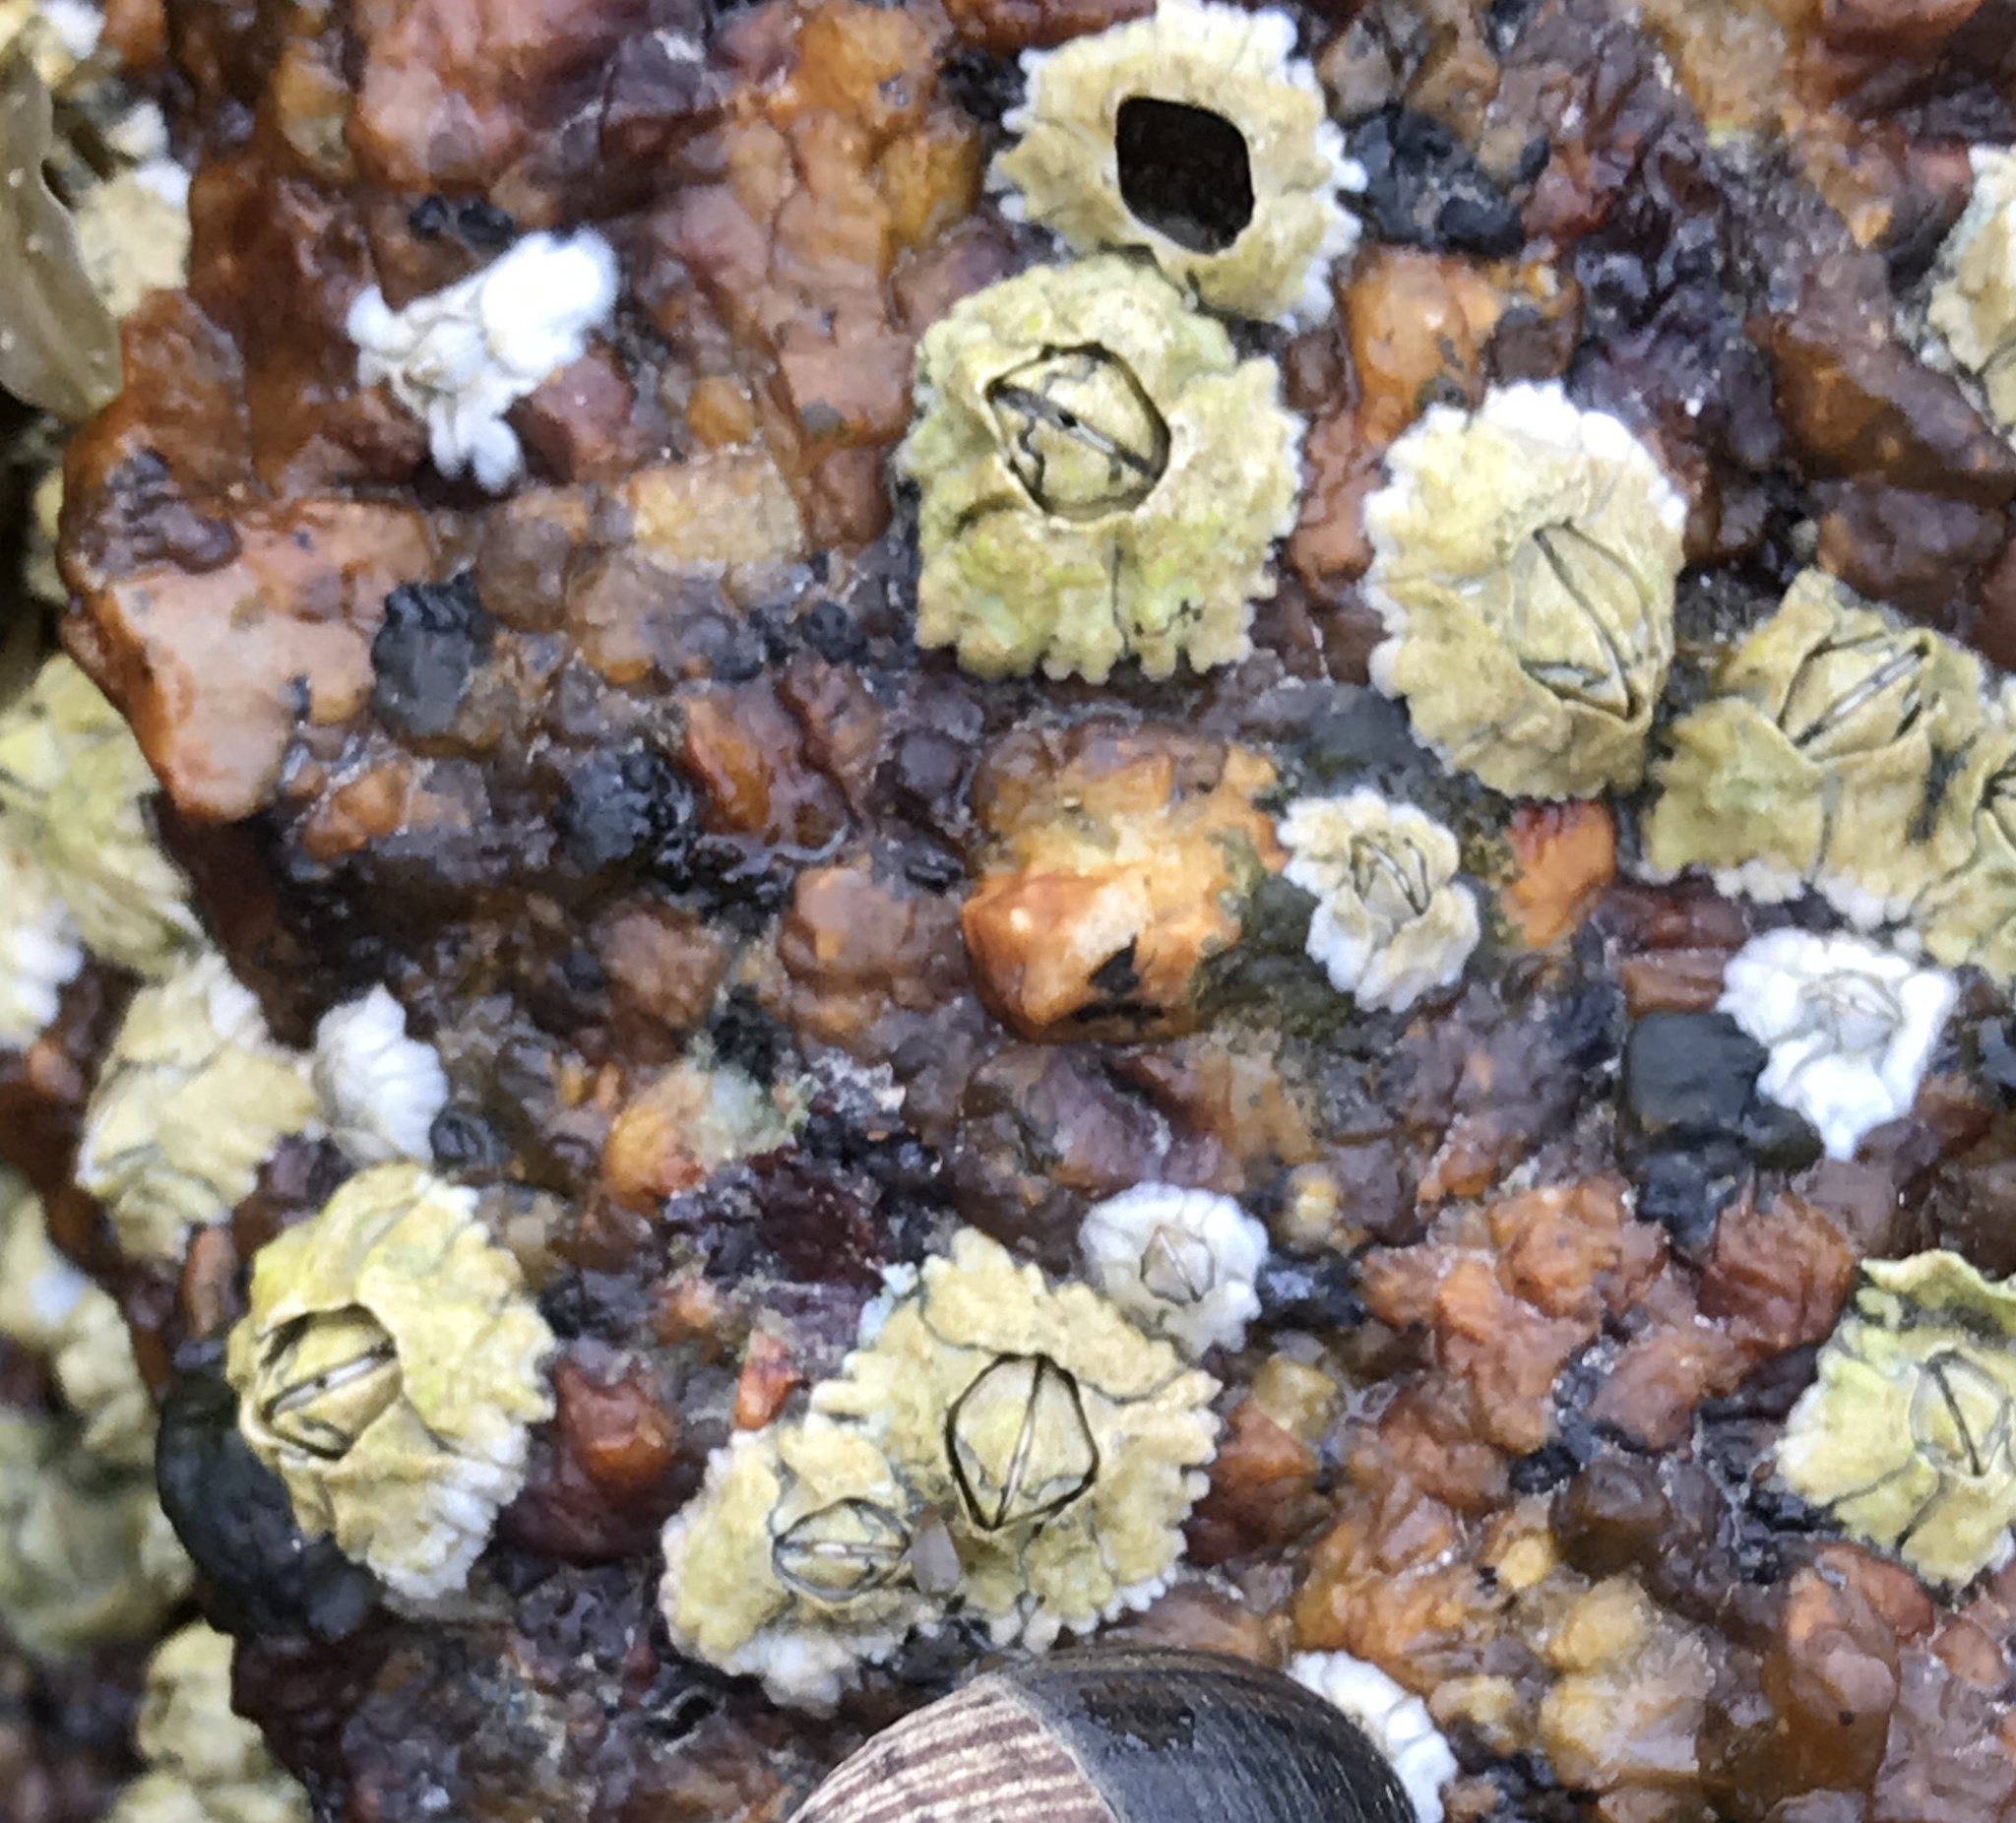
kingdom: Animalia
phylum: Arthropoda
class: Maxillopoda
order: Sessilia
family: Archaeobalanidae
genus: Semibalanus
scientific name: Semibalanus balanoides
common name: Acorn barnacle
